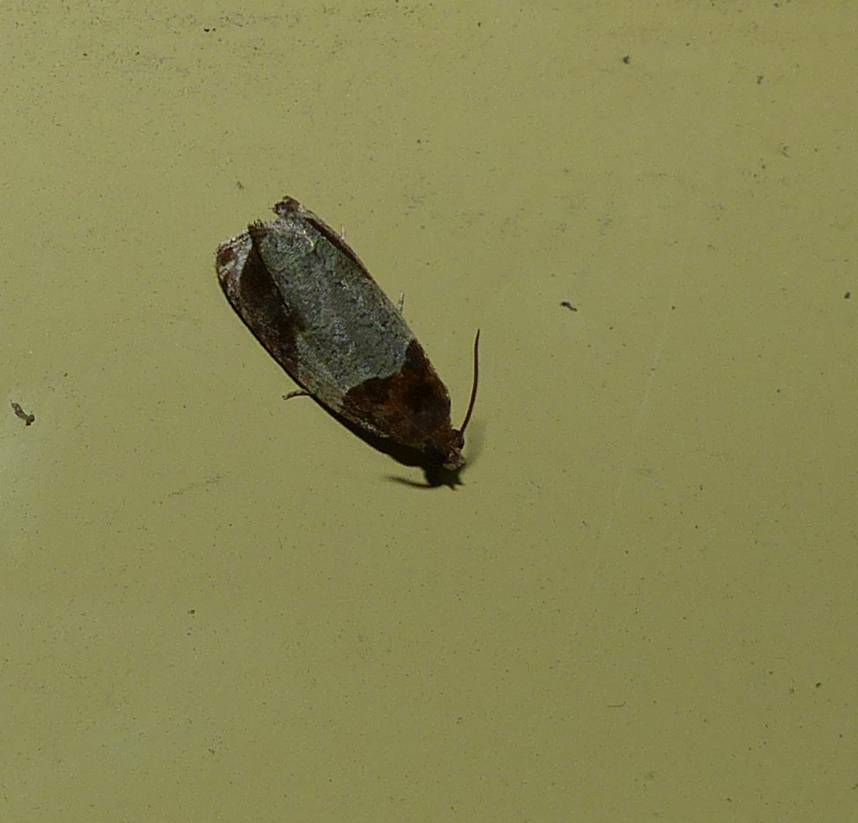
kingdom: Animalia
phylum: Arthropoda
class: Insecta
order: Lepidoptera
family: Tortricidae
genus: Olethreutes
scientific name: Olethreutes ferriferana
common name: Hydrangea leaftier moth
